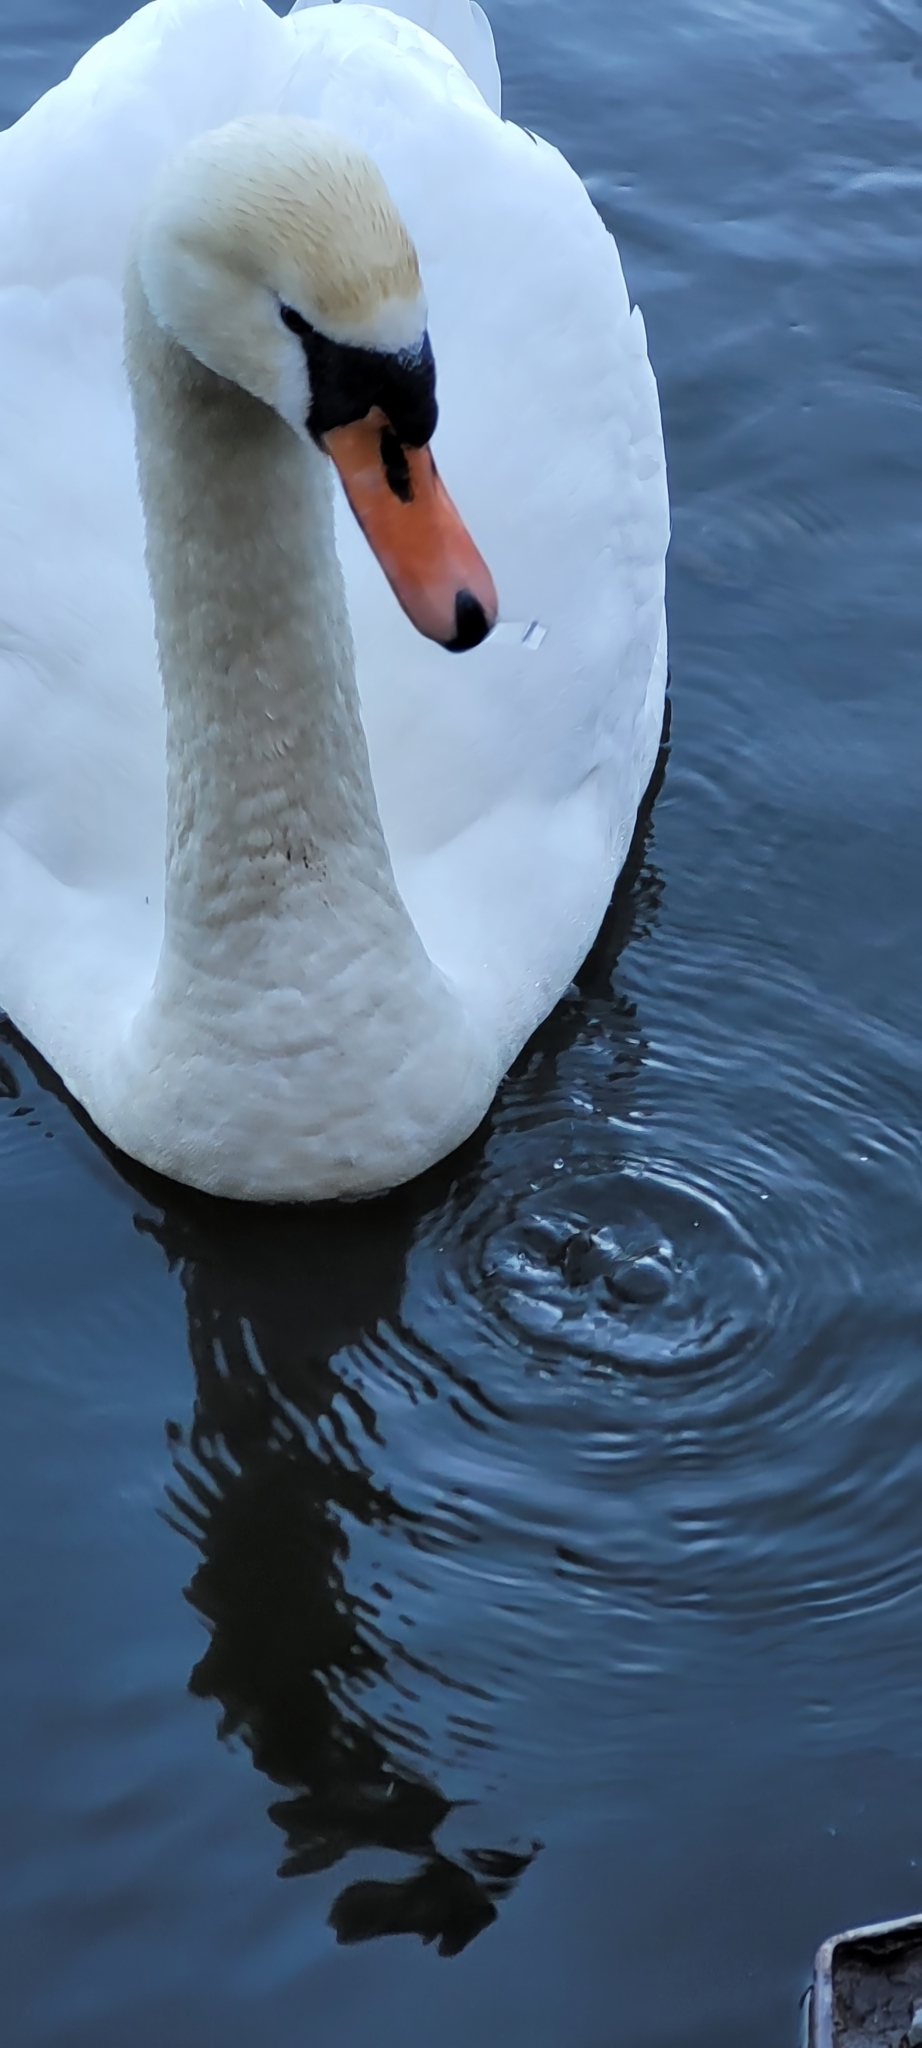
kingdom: Animalia
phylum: Chordata
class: Aves
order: Anseriformes
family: Anatidae
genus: Cygnus
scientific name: Cygnus olor
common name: Mute swan
